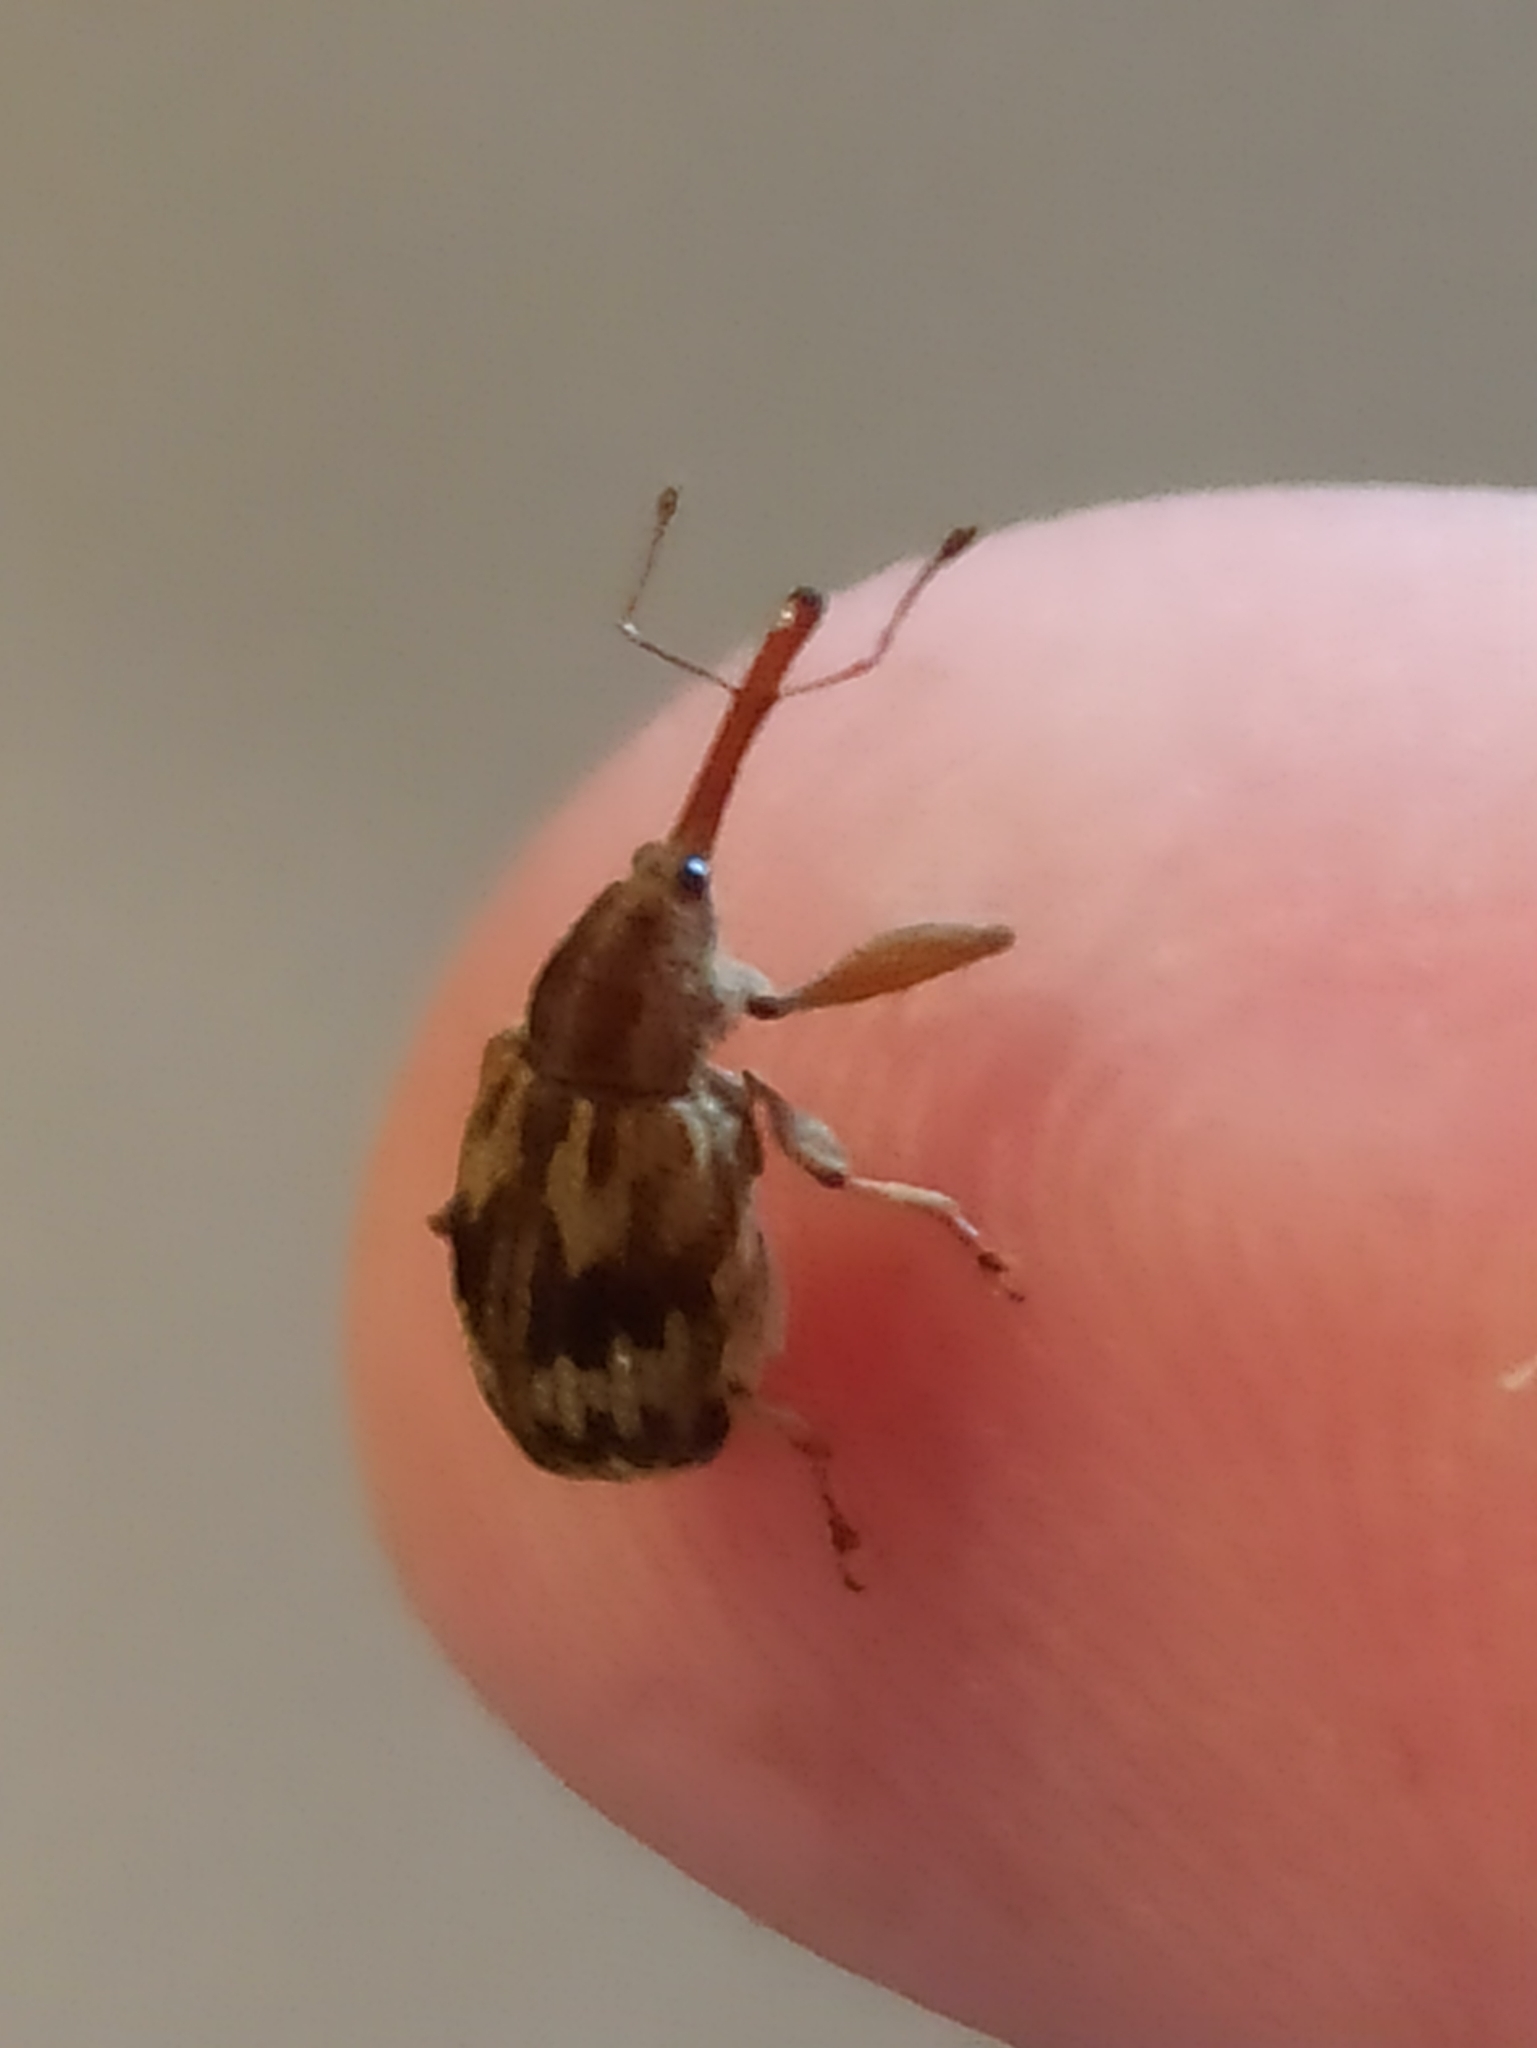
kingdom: Animalia
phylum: Arthropoda
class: Insecta
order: Coleoptera
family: Curculionidae
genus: Anthonomus
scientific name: Anthonomus rectirostris
